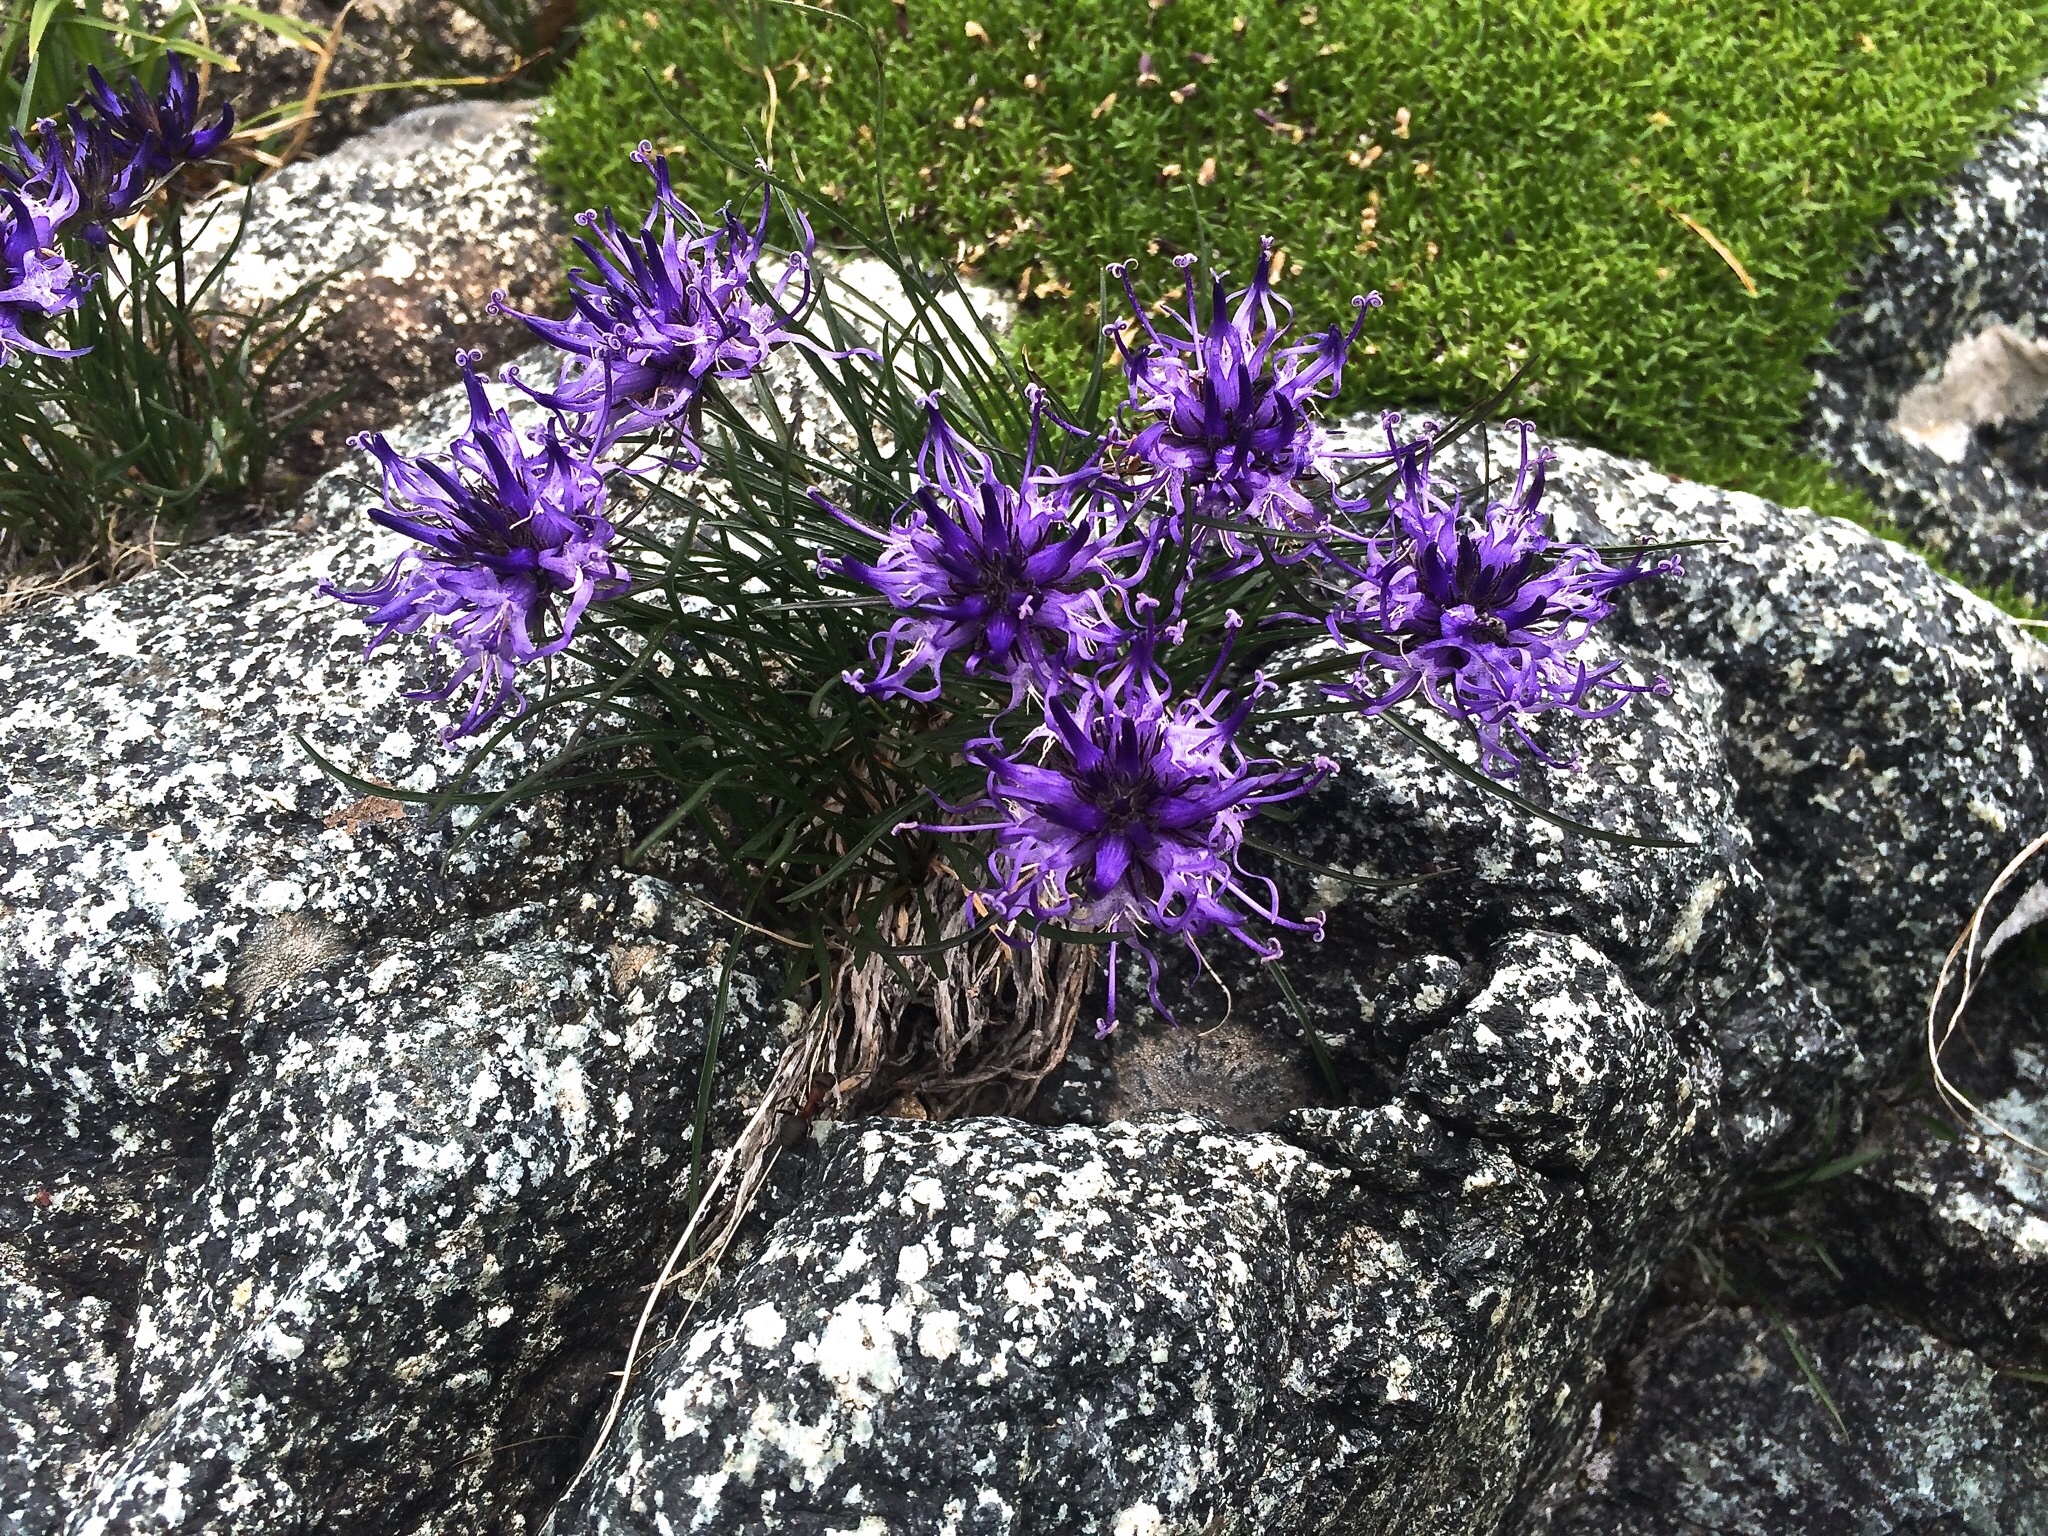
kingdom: Plantae
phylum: Tracheophyta
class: Magnoliopsida
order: Asterales
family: Campanulaceae
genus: Phyteuma
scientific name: Phyteuma hedraianthifolium
